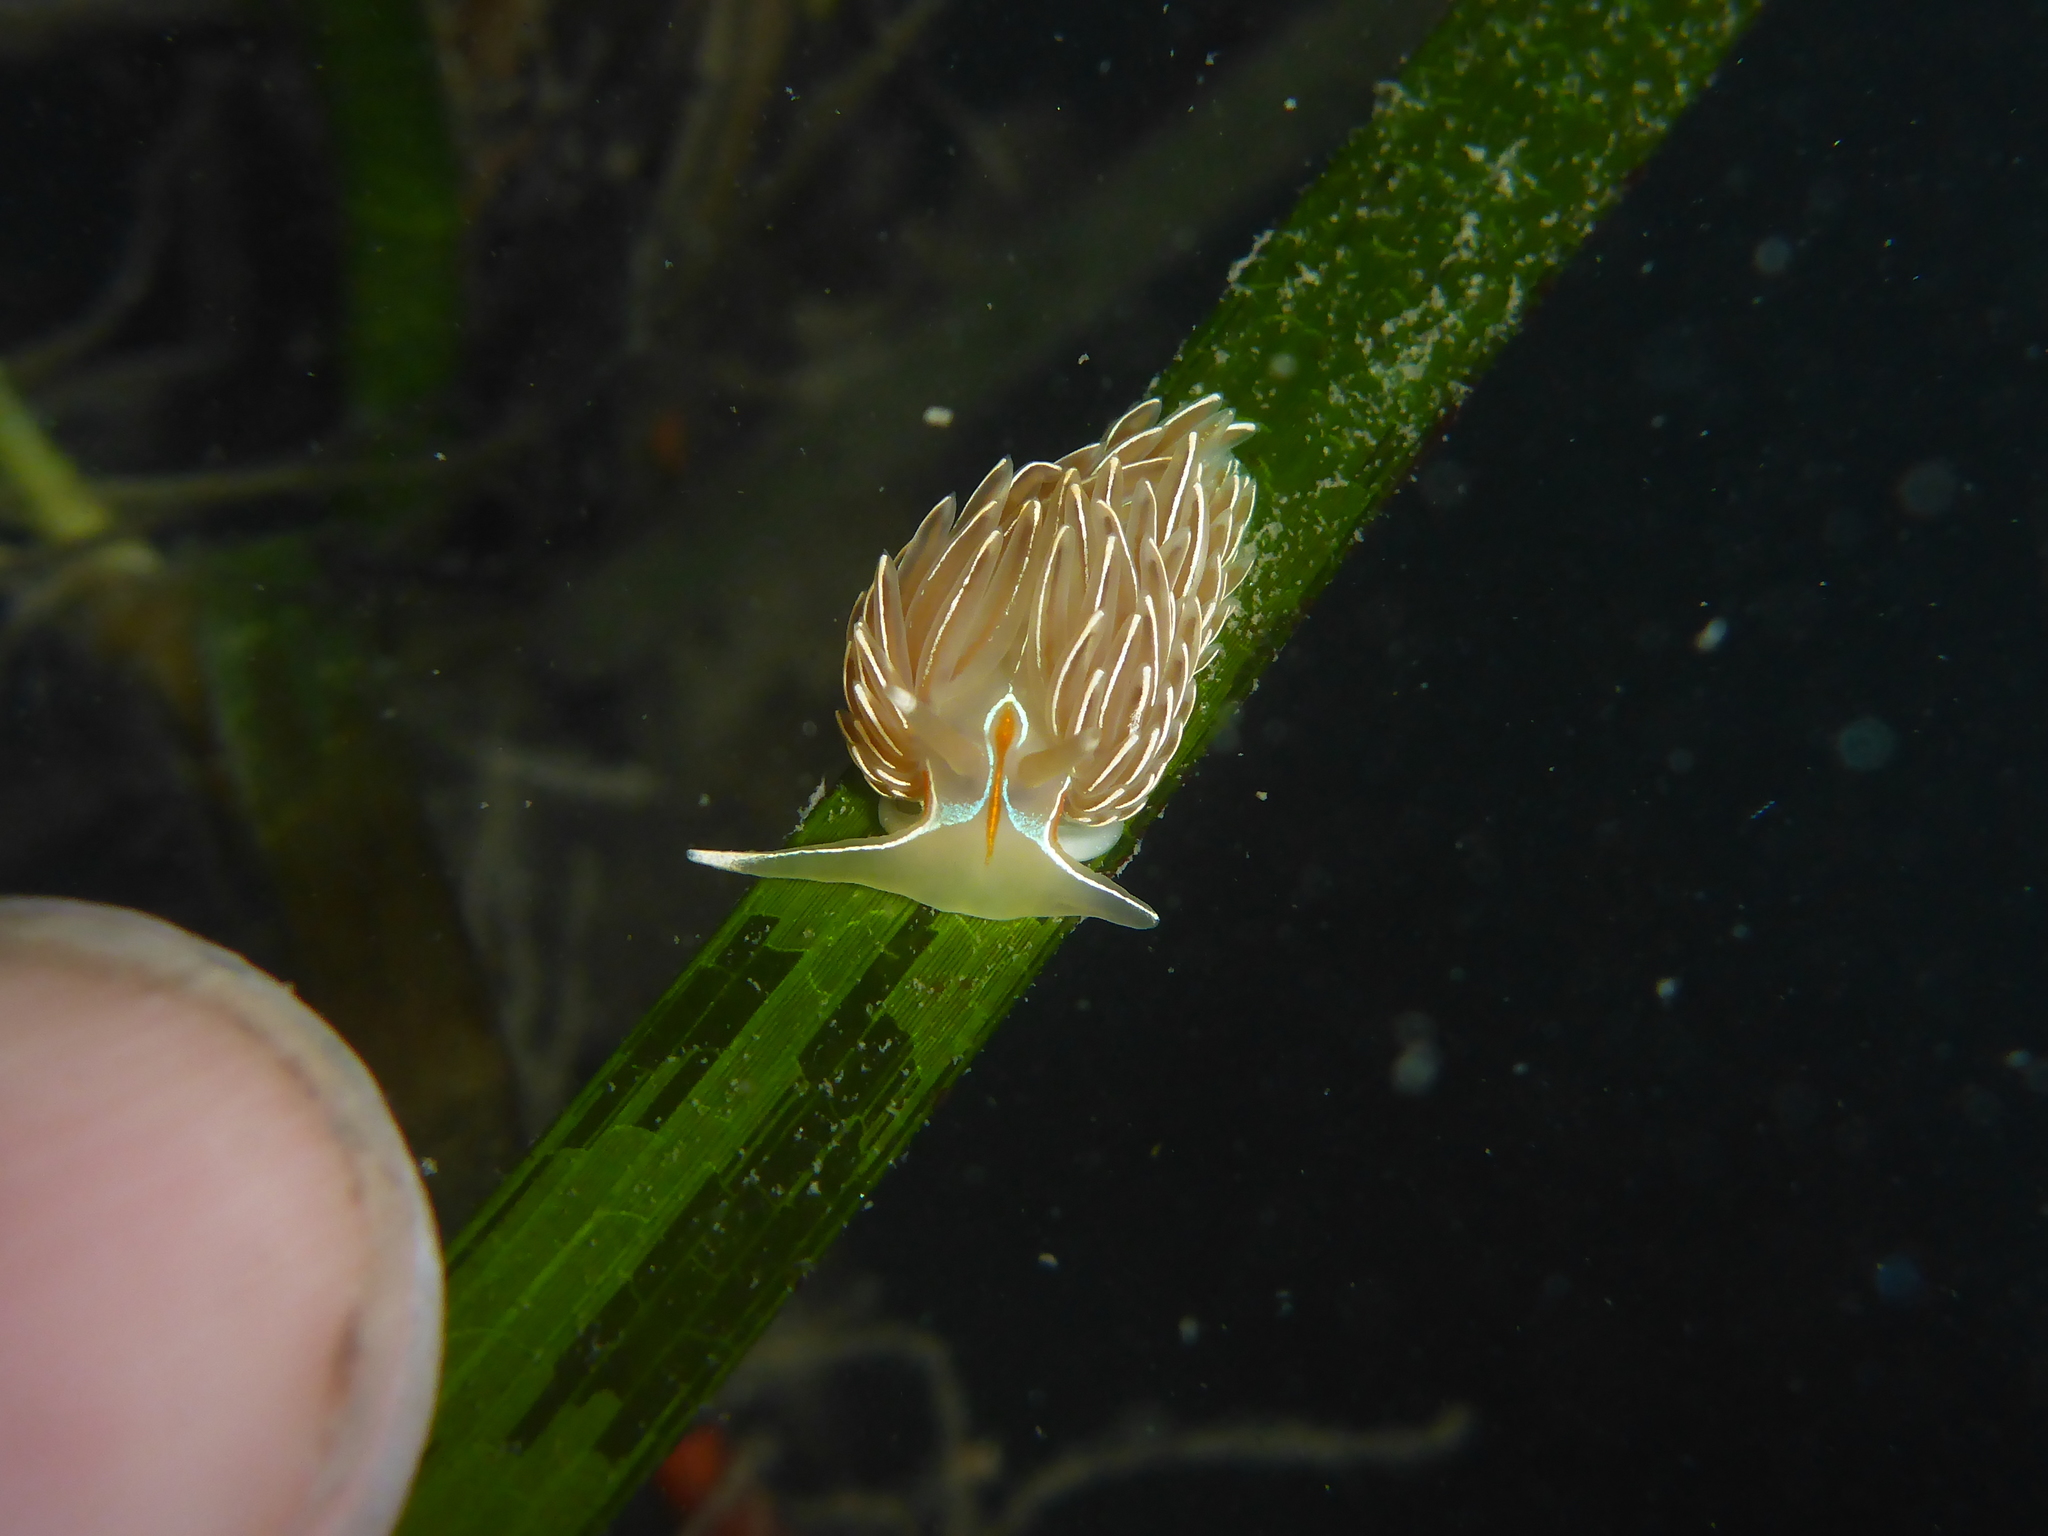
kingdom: Animalia
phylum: Mollusca
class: Gastropoda
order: Nudibranchia
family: Myrrhinidae
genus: Hermissenda
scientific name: Hermissenda crassicornis
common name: Hermissenda
